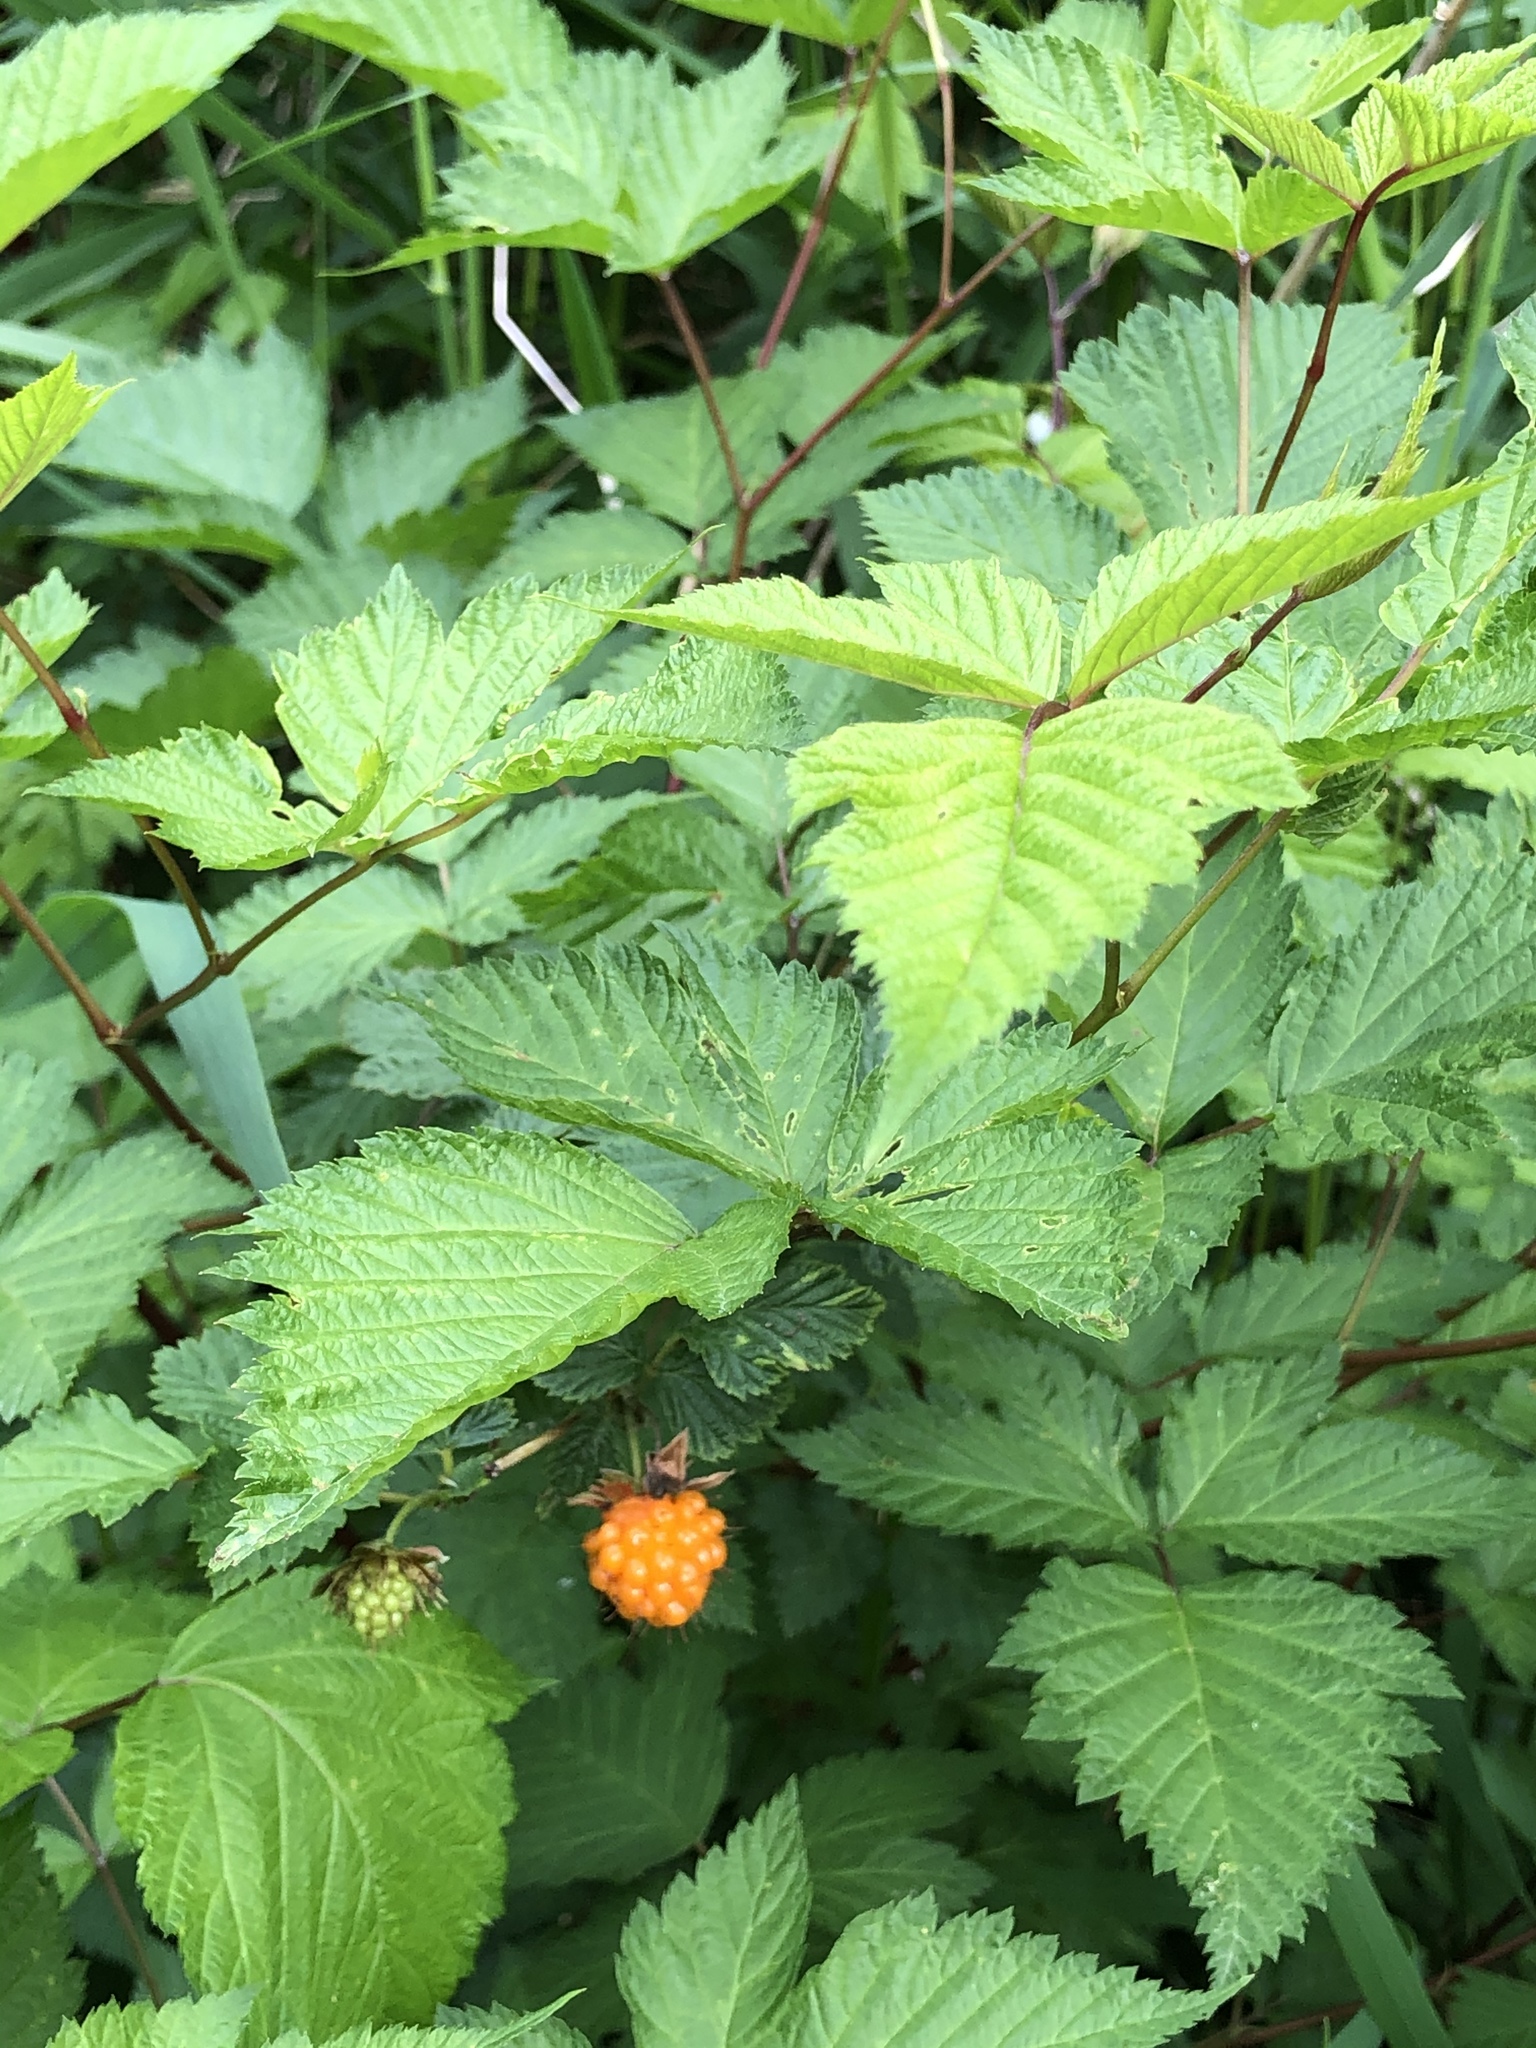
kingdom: Plantae
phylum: Tracheophyta
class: Magnoliopsida
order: Rosales
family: Rosaceae
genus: Rubus
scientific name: Rubus spectabilis
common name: Salmonberry
